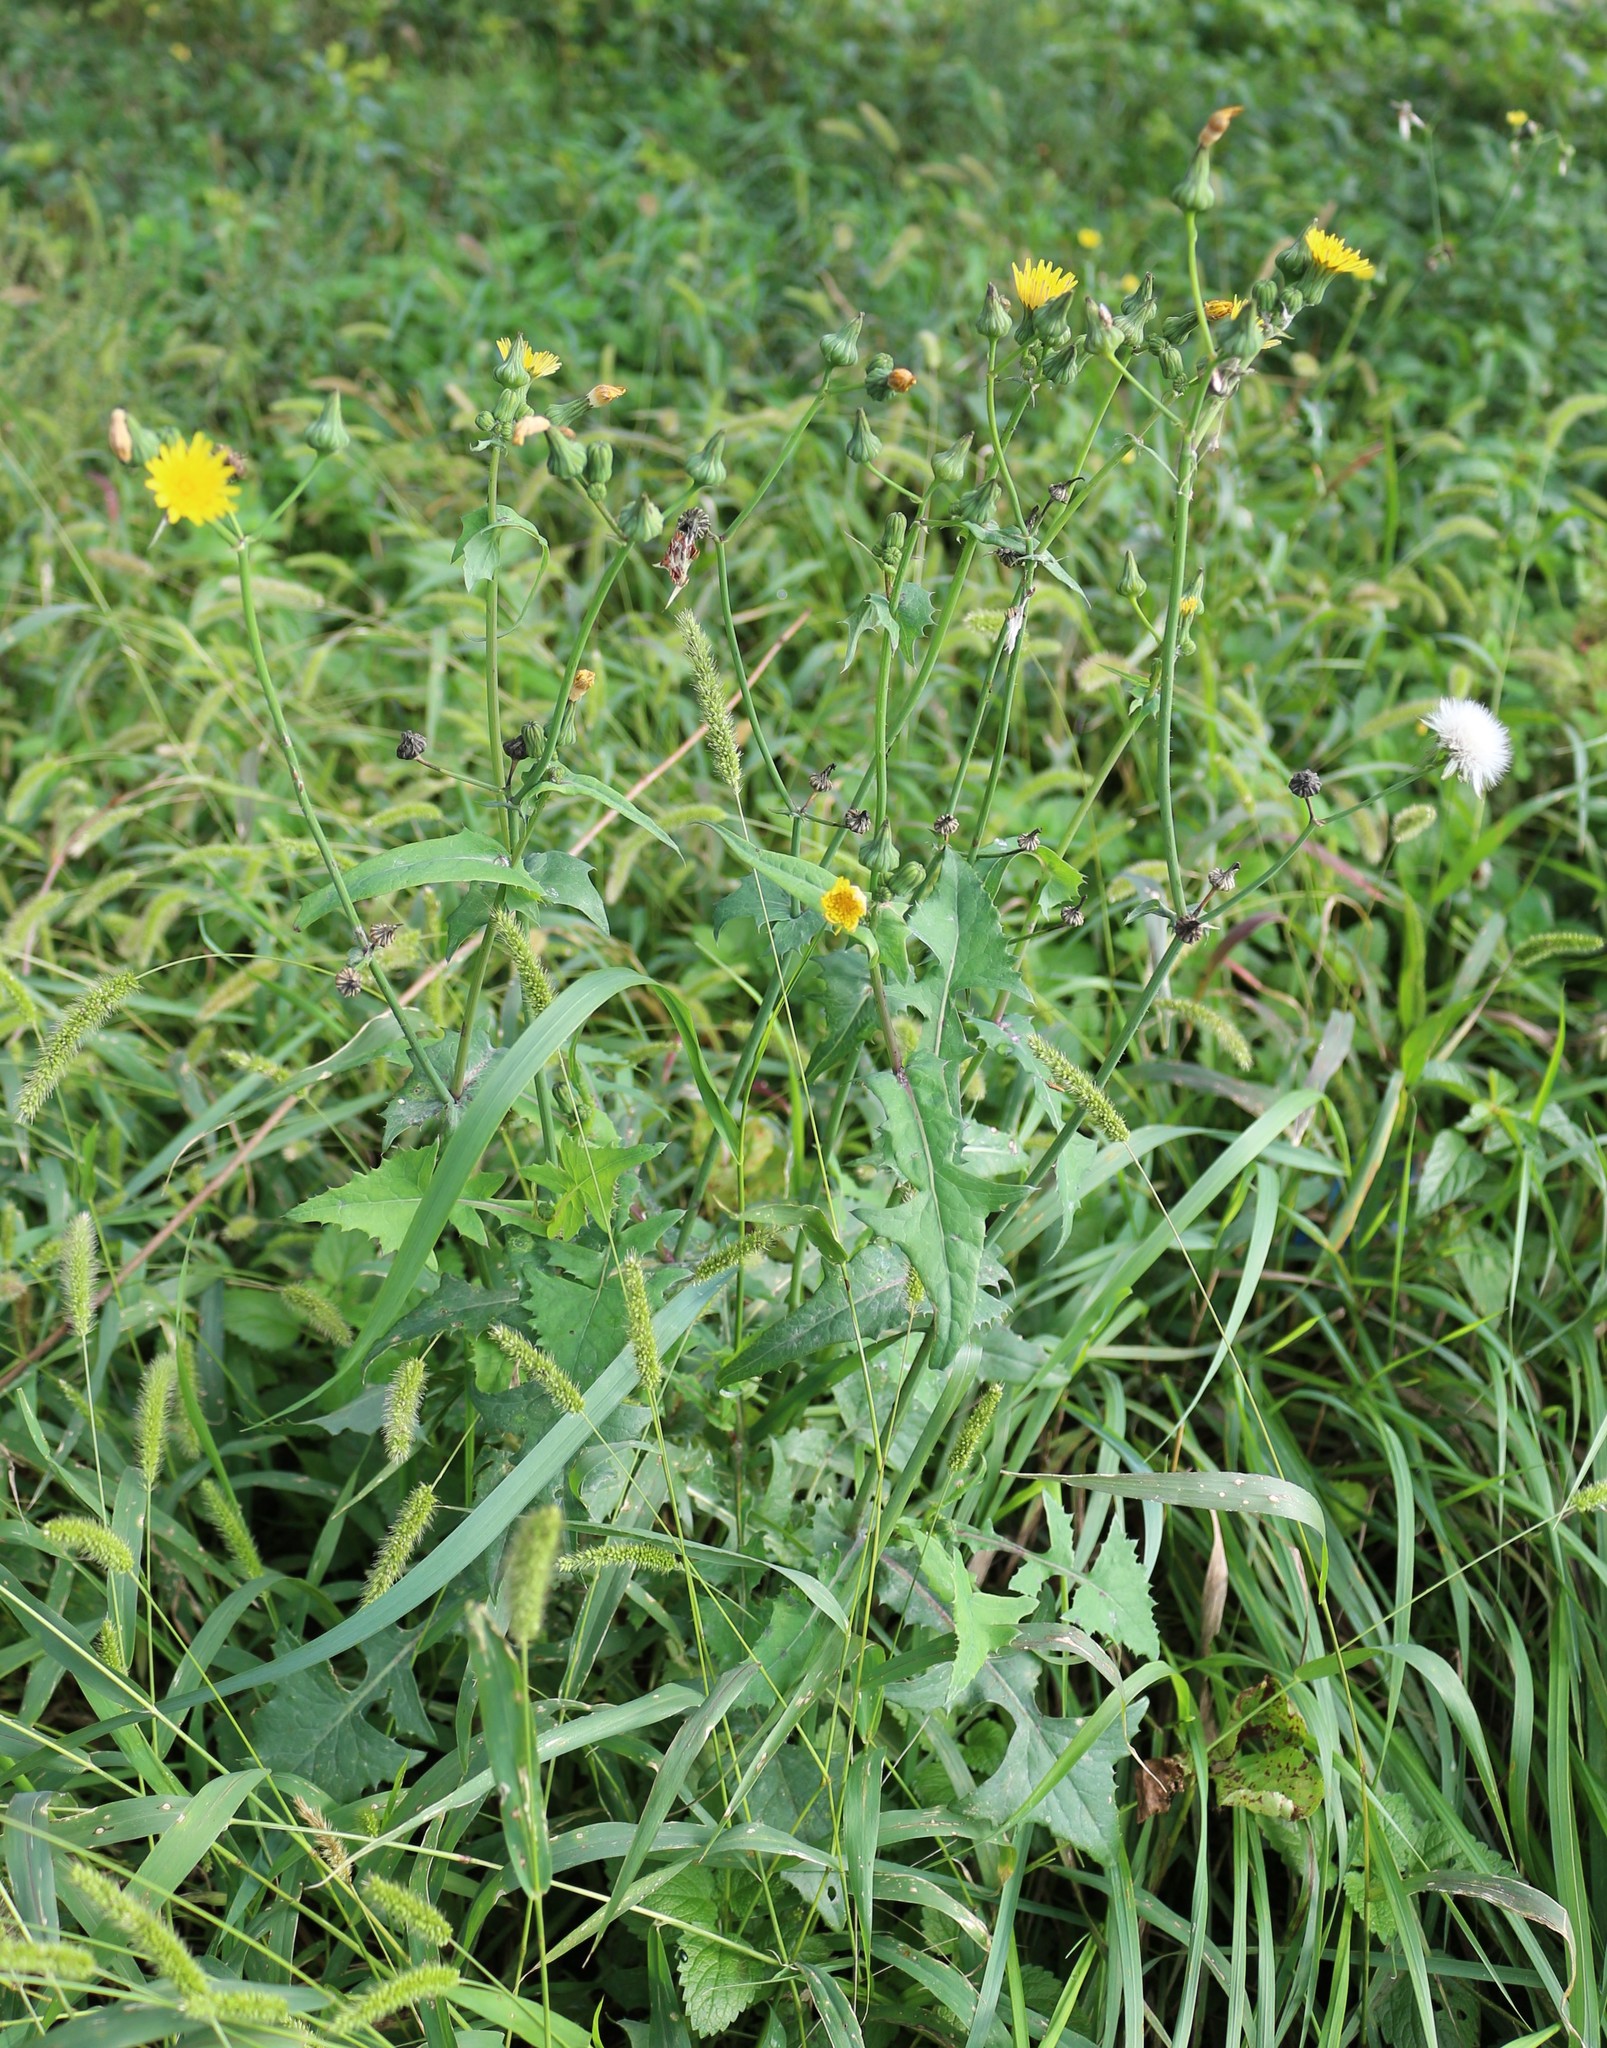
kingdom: Plantae
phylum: Tracheophyta
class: Magnoliopsida
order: Asterales
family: Asteraceae
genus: Sonchus
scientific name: Sonchus oleraceus
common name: Common sowthistle
